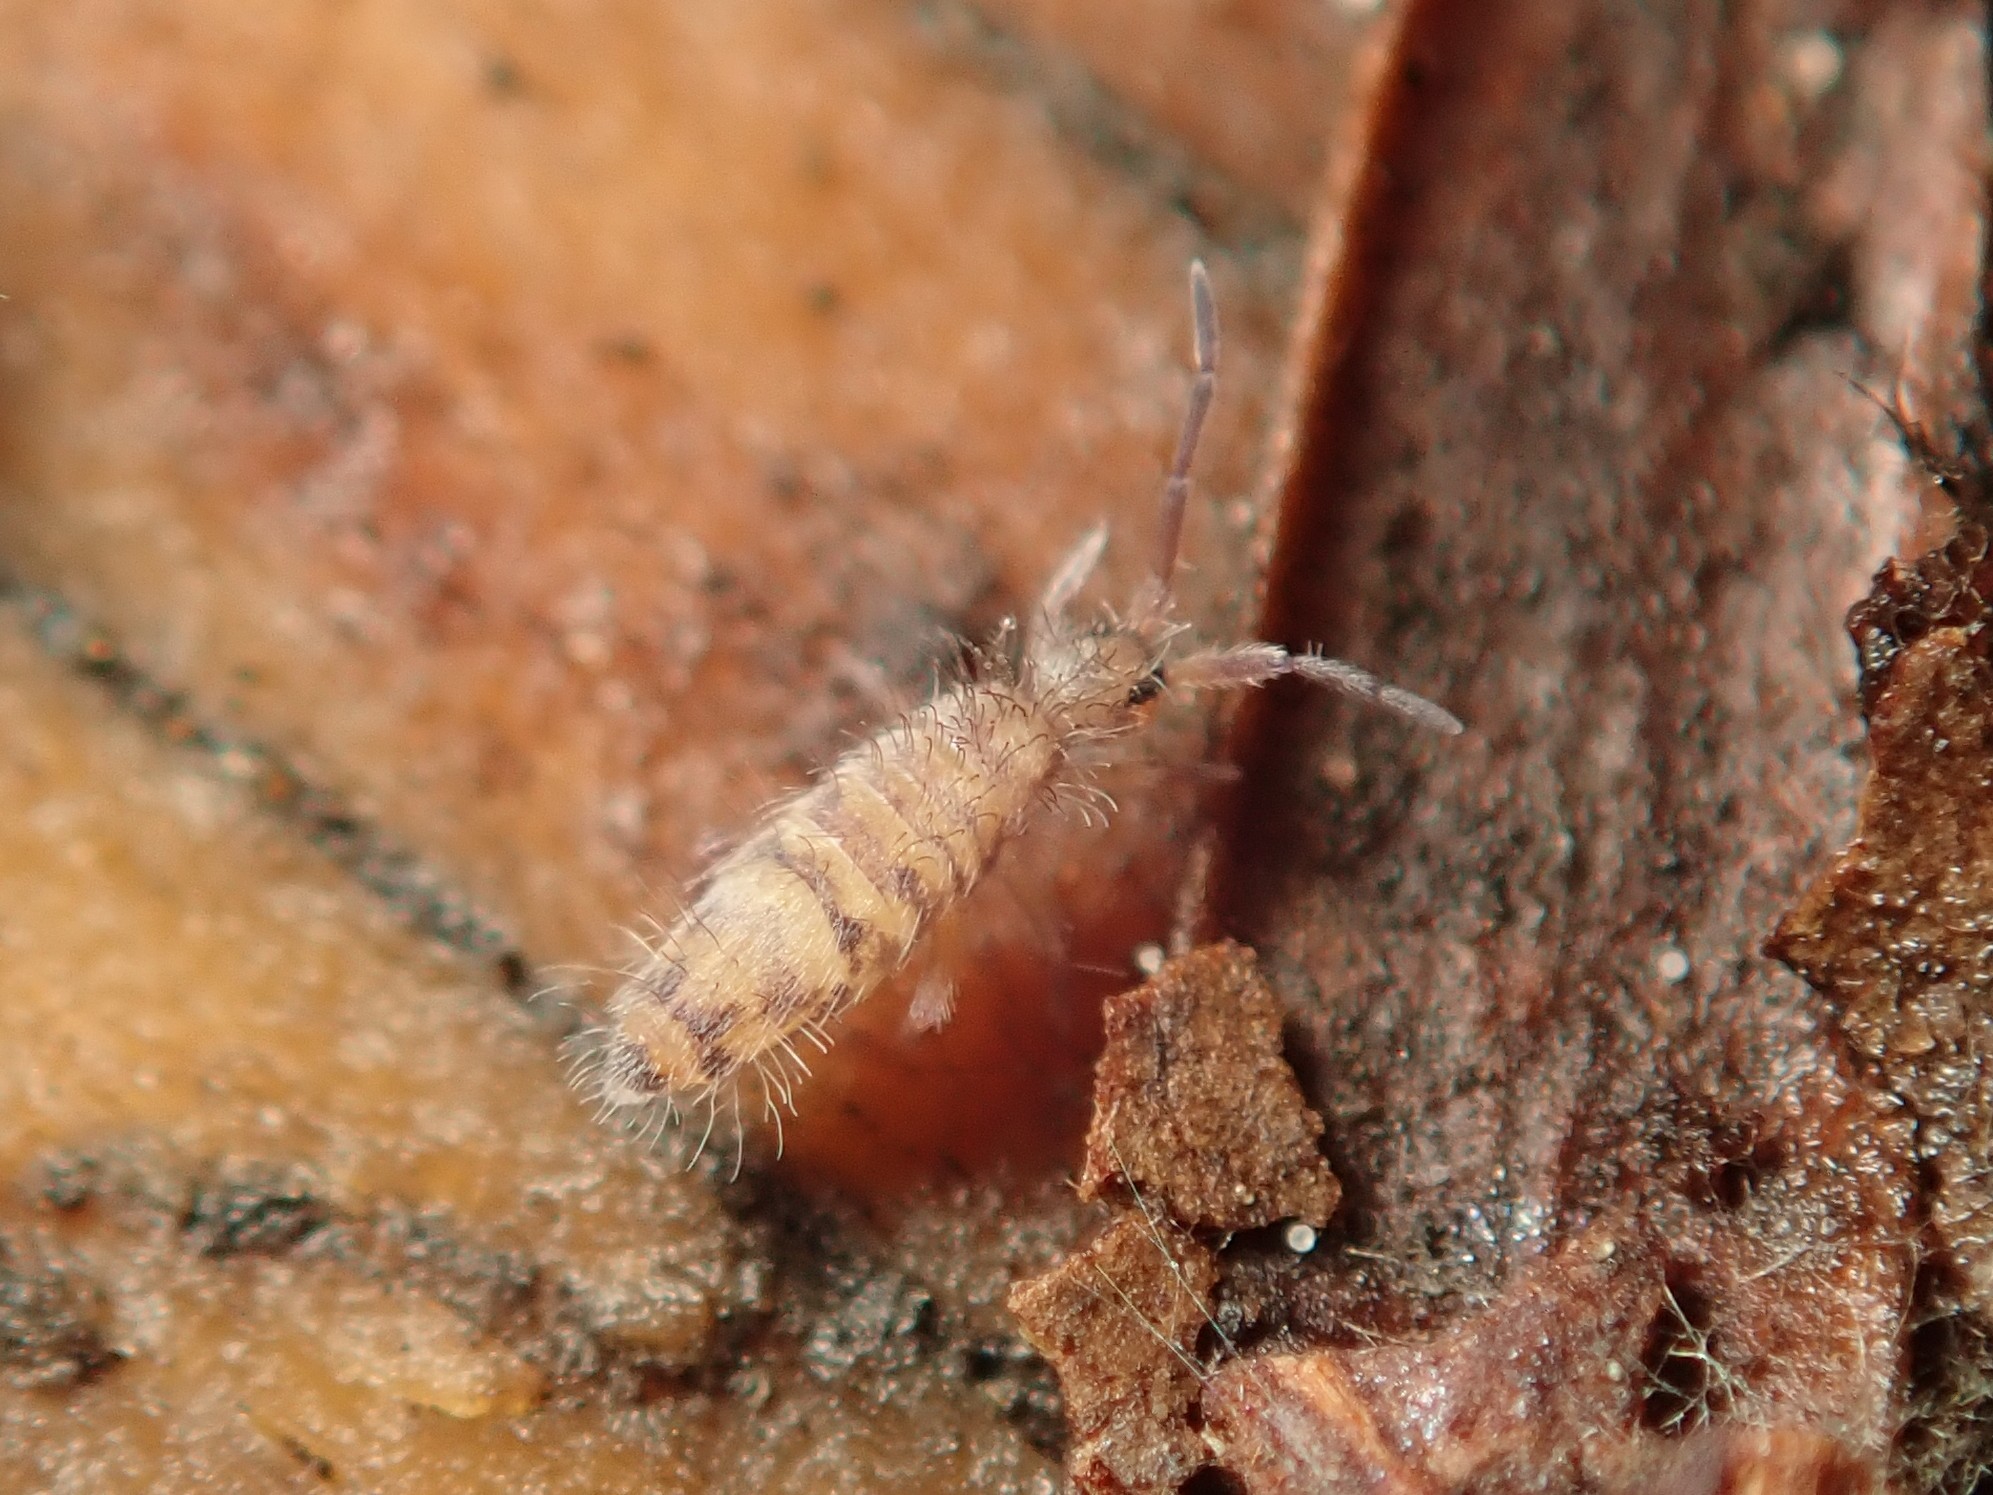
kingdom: Animalia
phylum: Arthropoda
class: Collembola
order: Entomobryomorpha
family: Entomobryidae
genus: Entomobrya
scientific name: Entomobrya multifasciata
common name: Springtail
